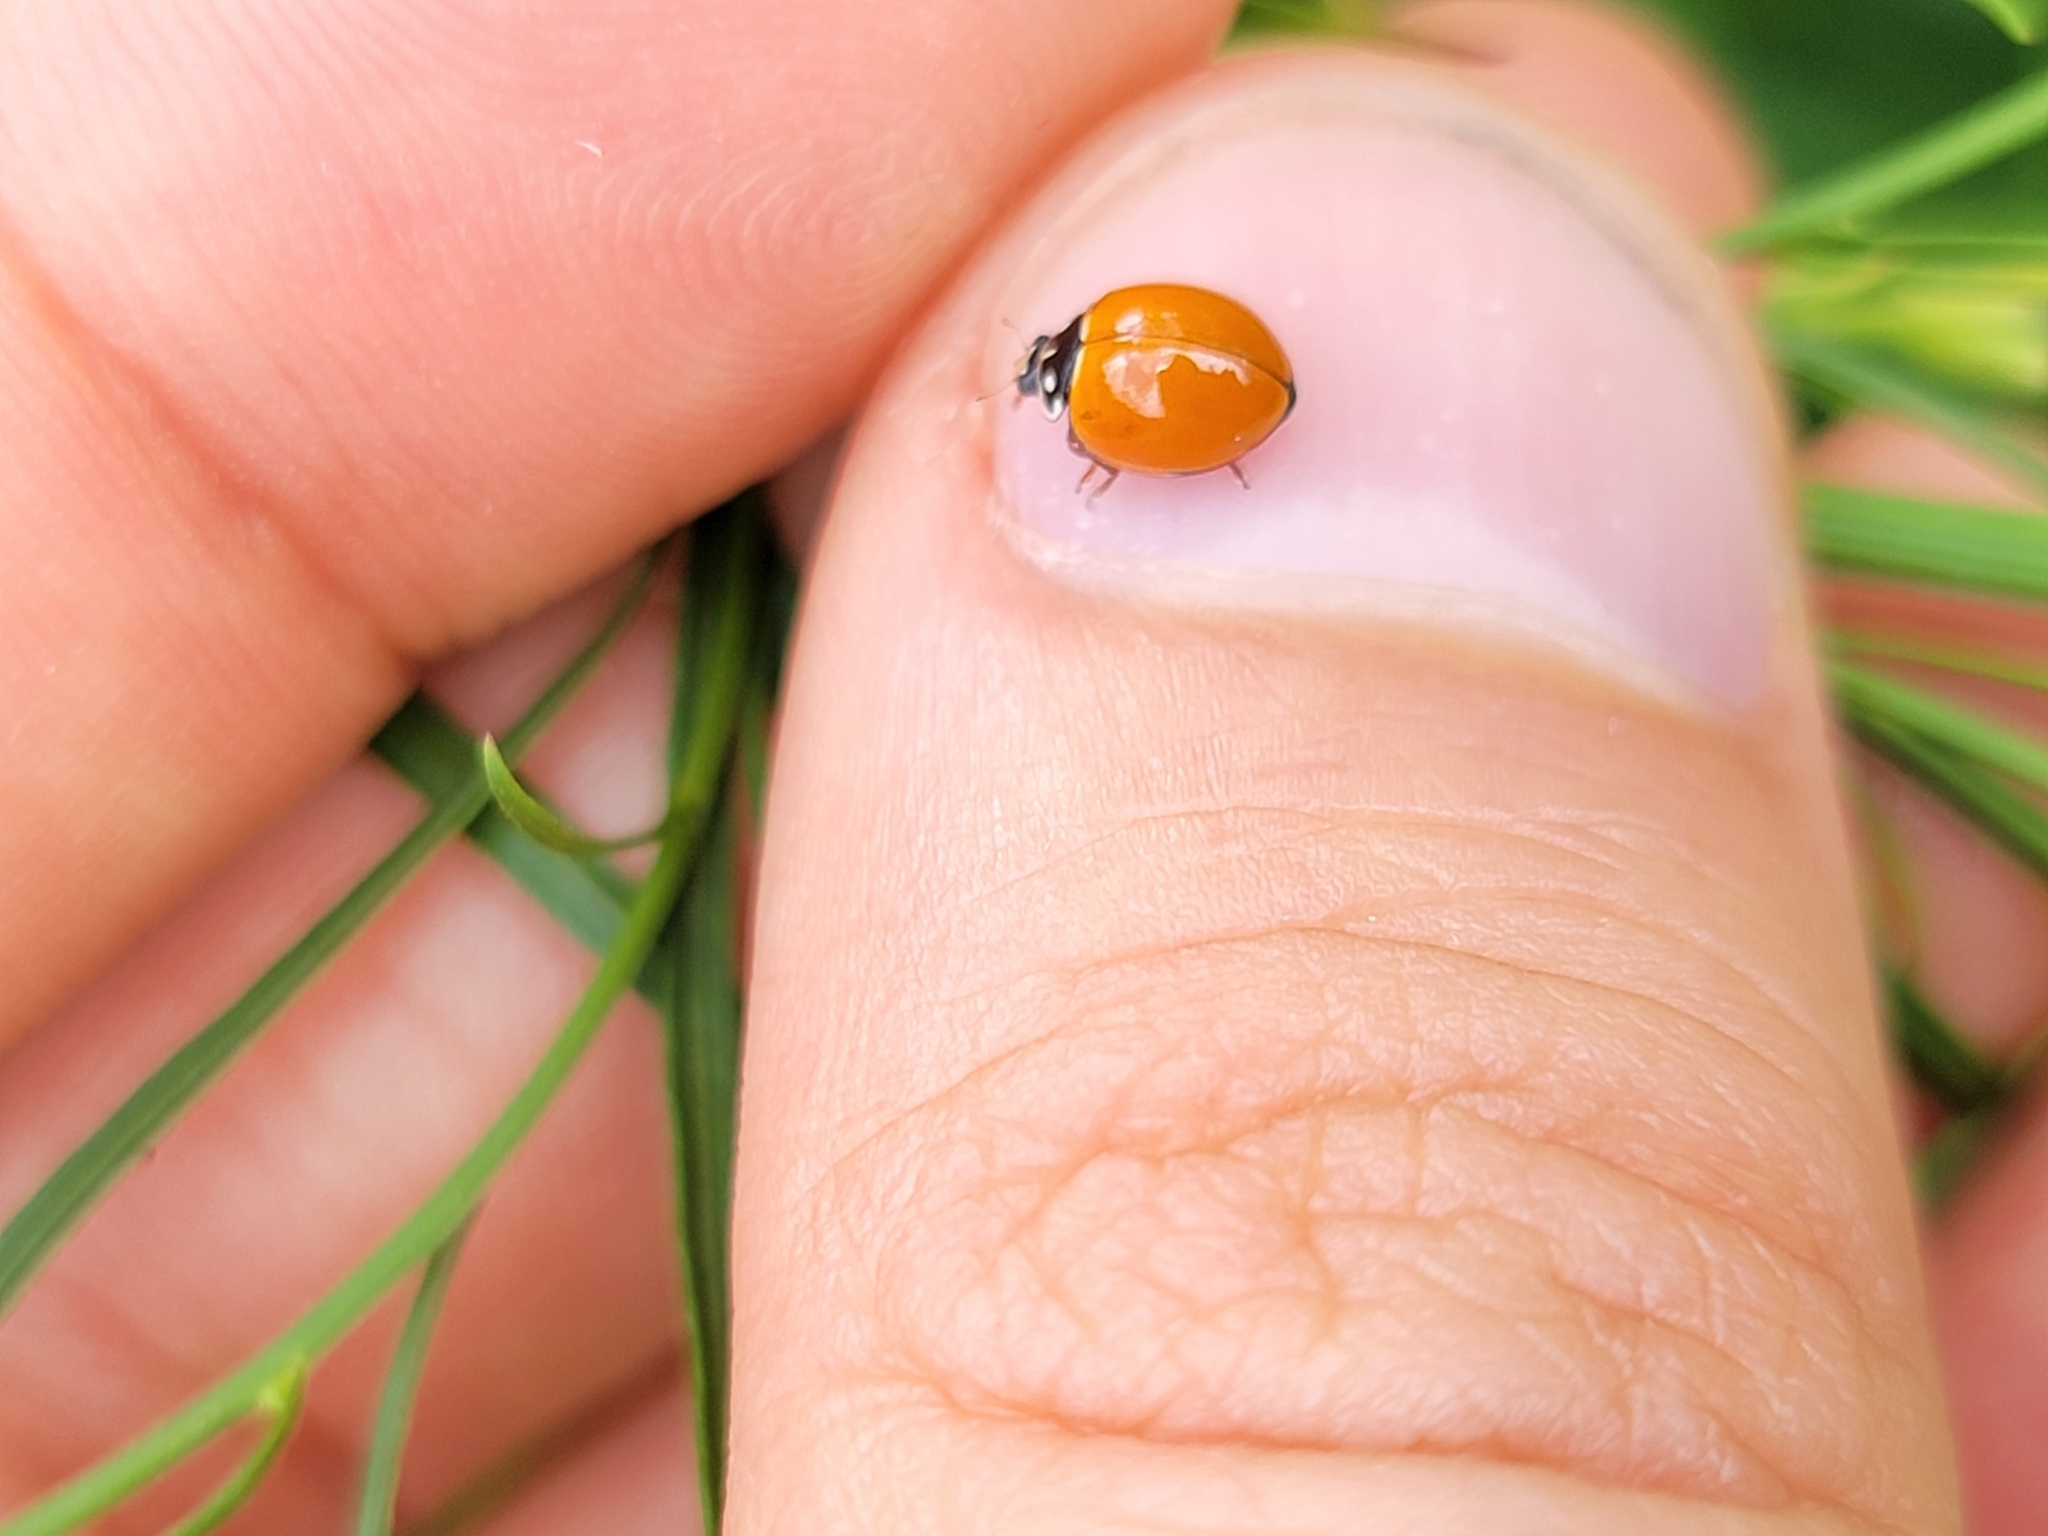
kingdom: Animalia
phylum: Arthropoda
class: Insecta
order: Coleoptera
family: Coccinellidae
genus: Cycloneda
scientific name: Cycloneda sanguinea
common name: Ladybird beetle
